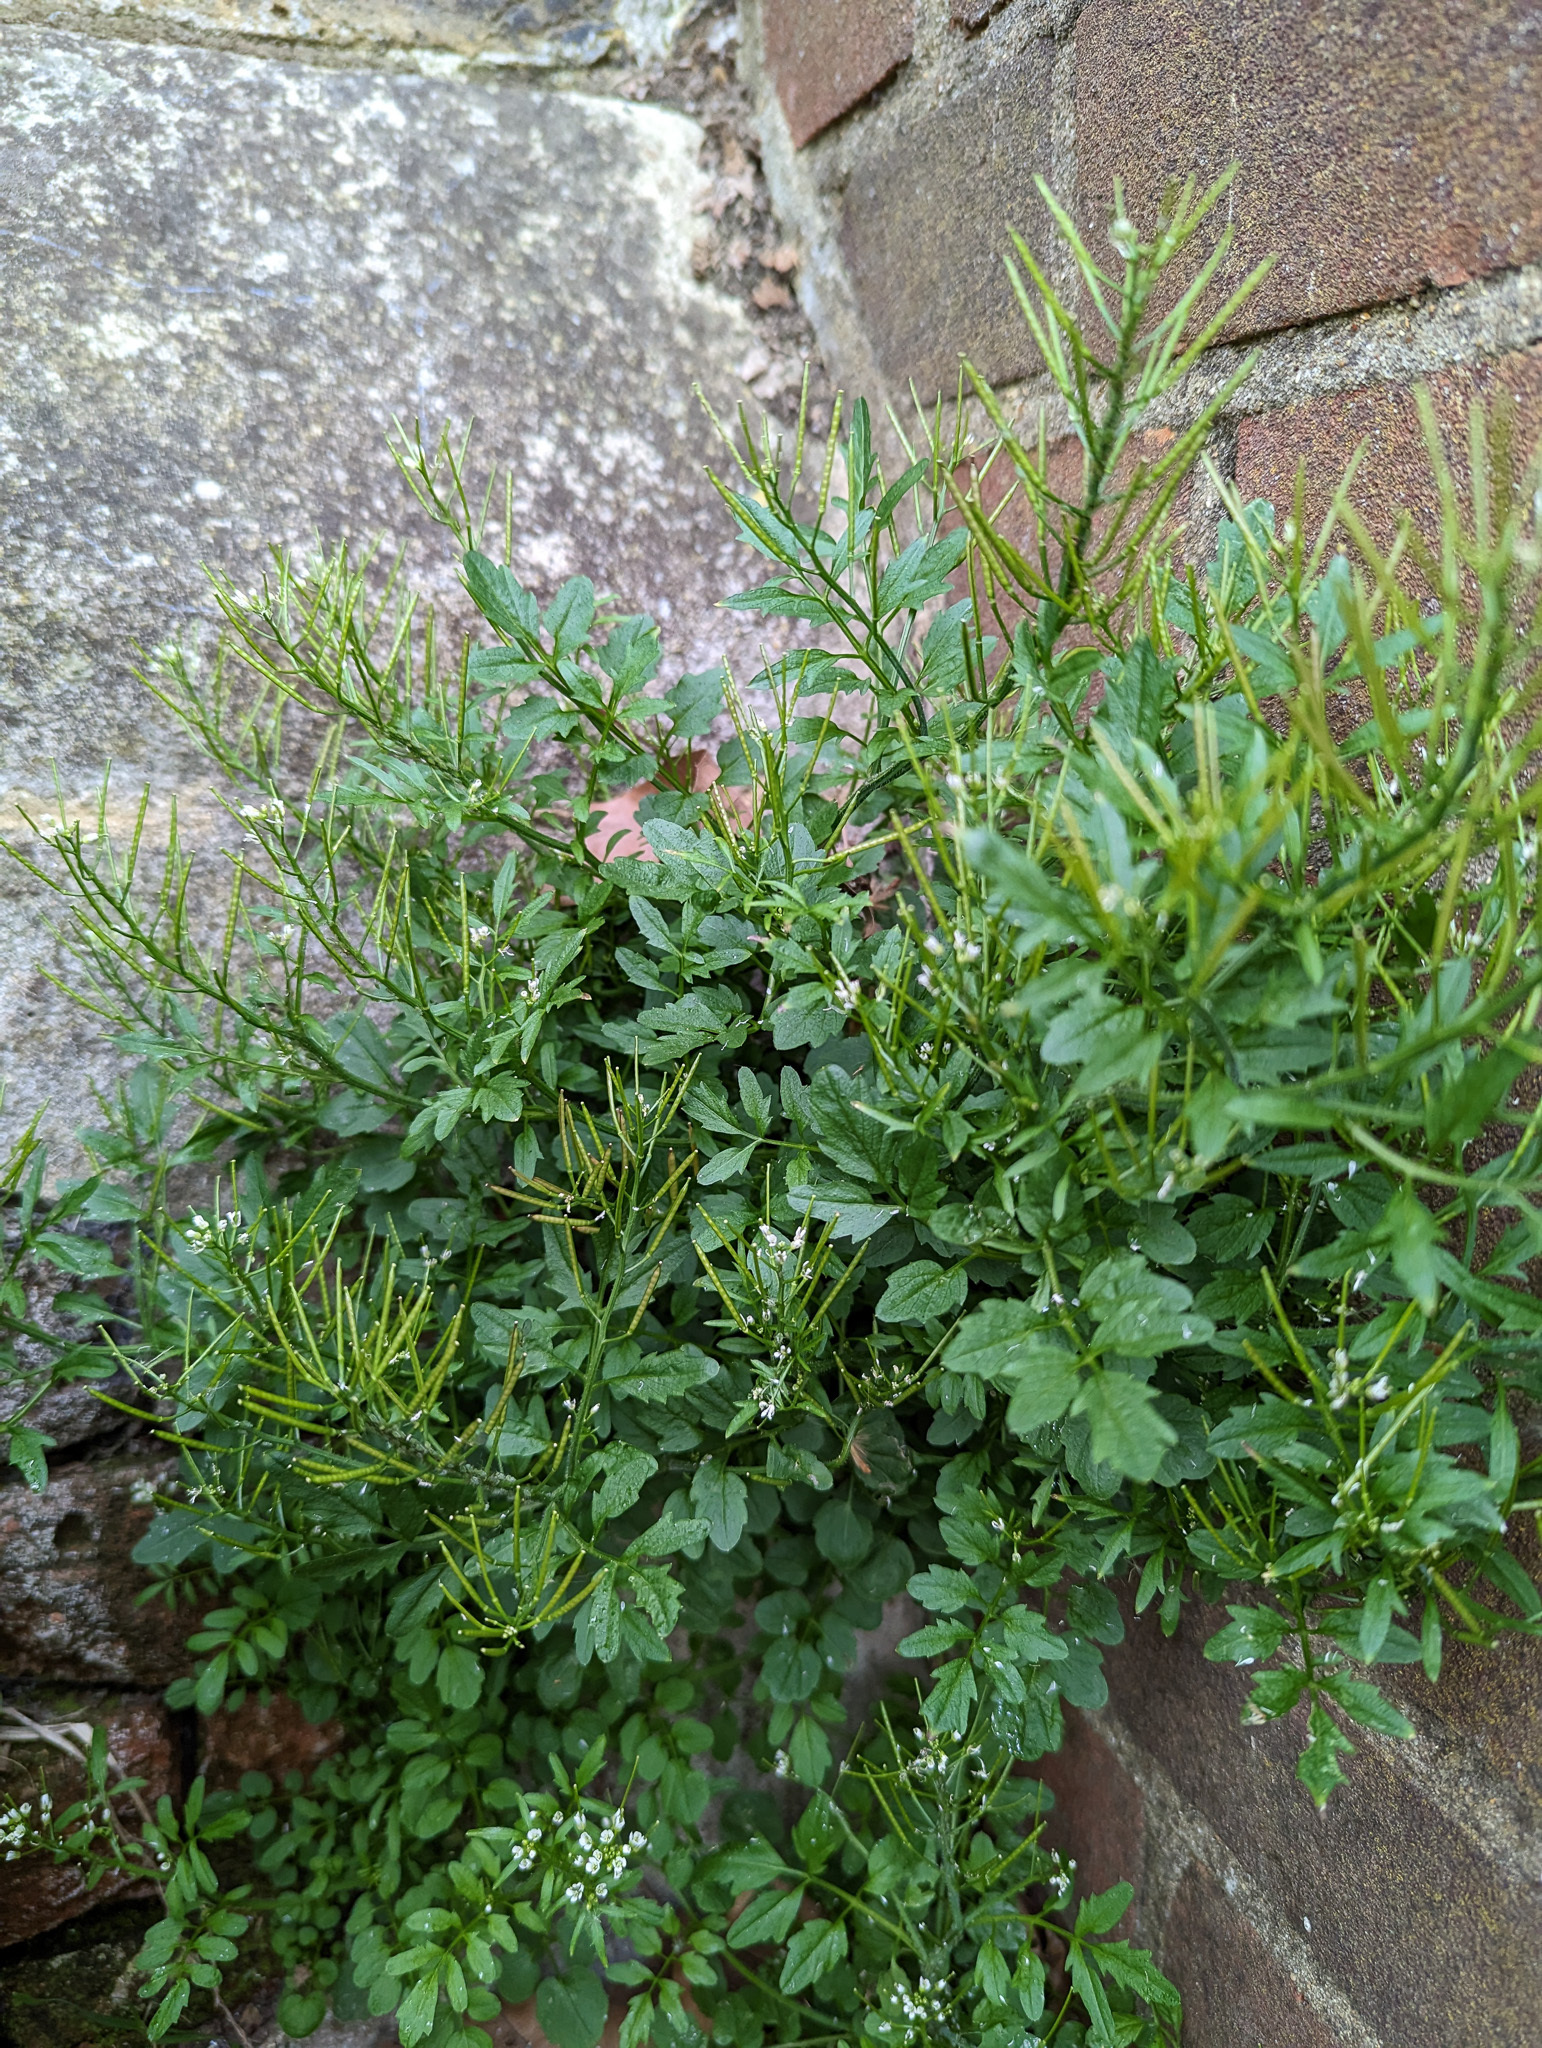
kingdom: Plantae
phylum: Tracheophyta
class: Magnoliopsida
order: Brassicales
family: Brassicaceae
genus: Cardamine
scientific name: Cardamine flexuosa
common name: Woodland bittercress
